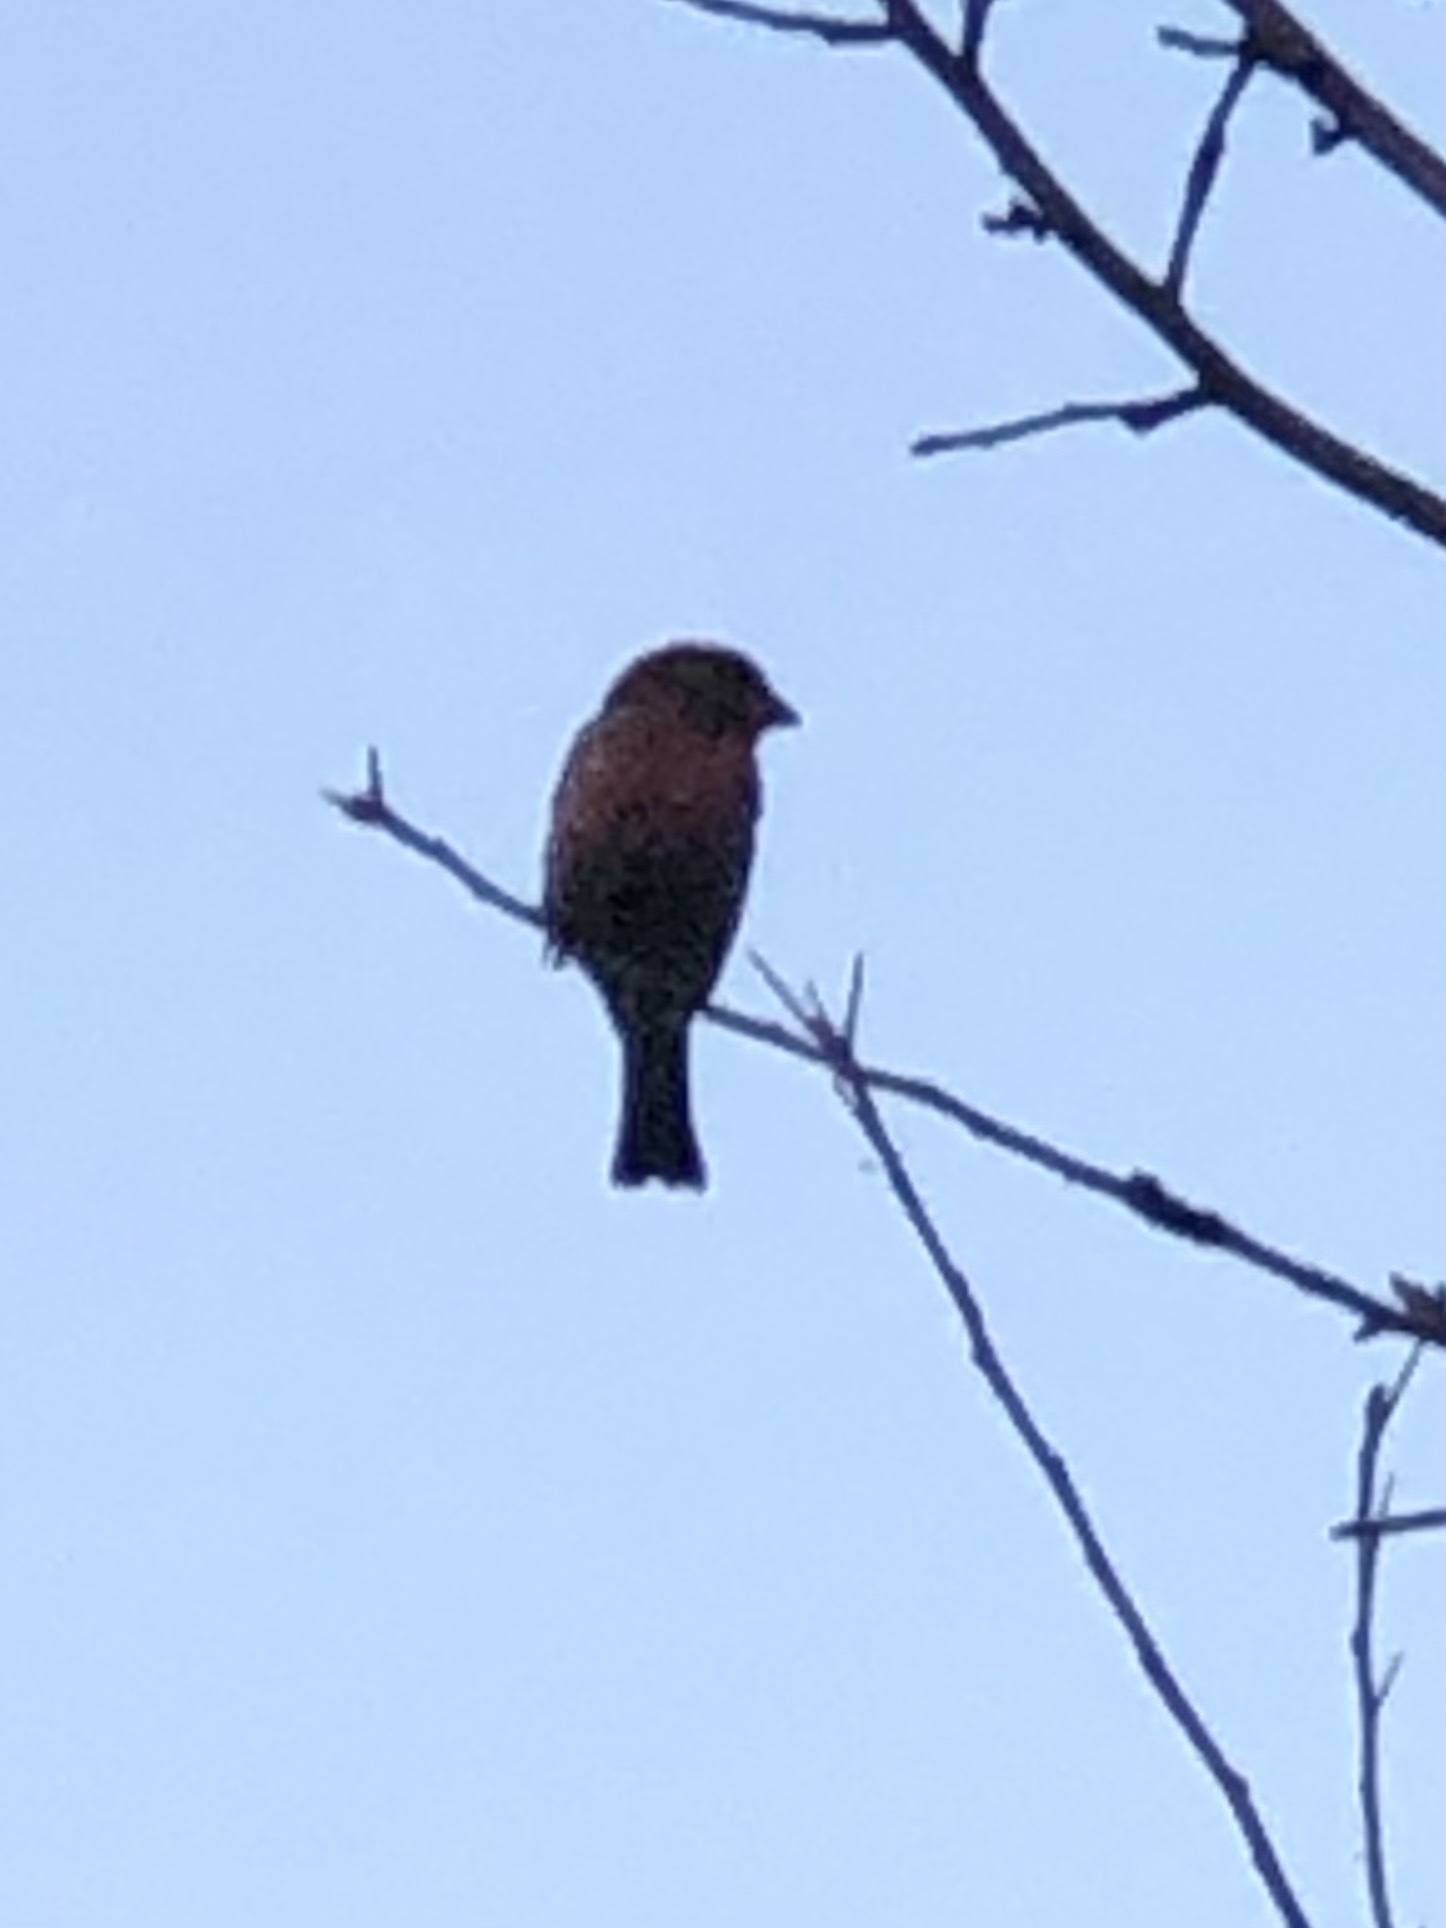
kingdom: Animalia
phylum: Chordata
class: Aves
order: Passeriformes
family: Fringillidae
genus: Haemorhous
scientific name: Haemorhous mexicanus
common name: House finch
